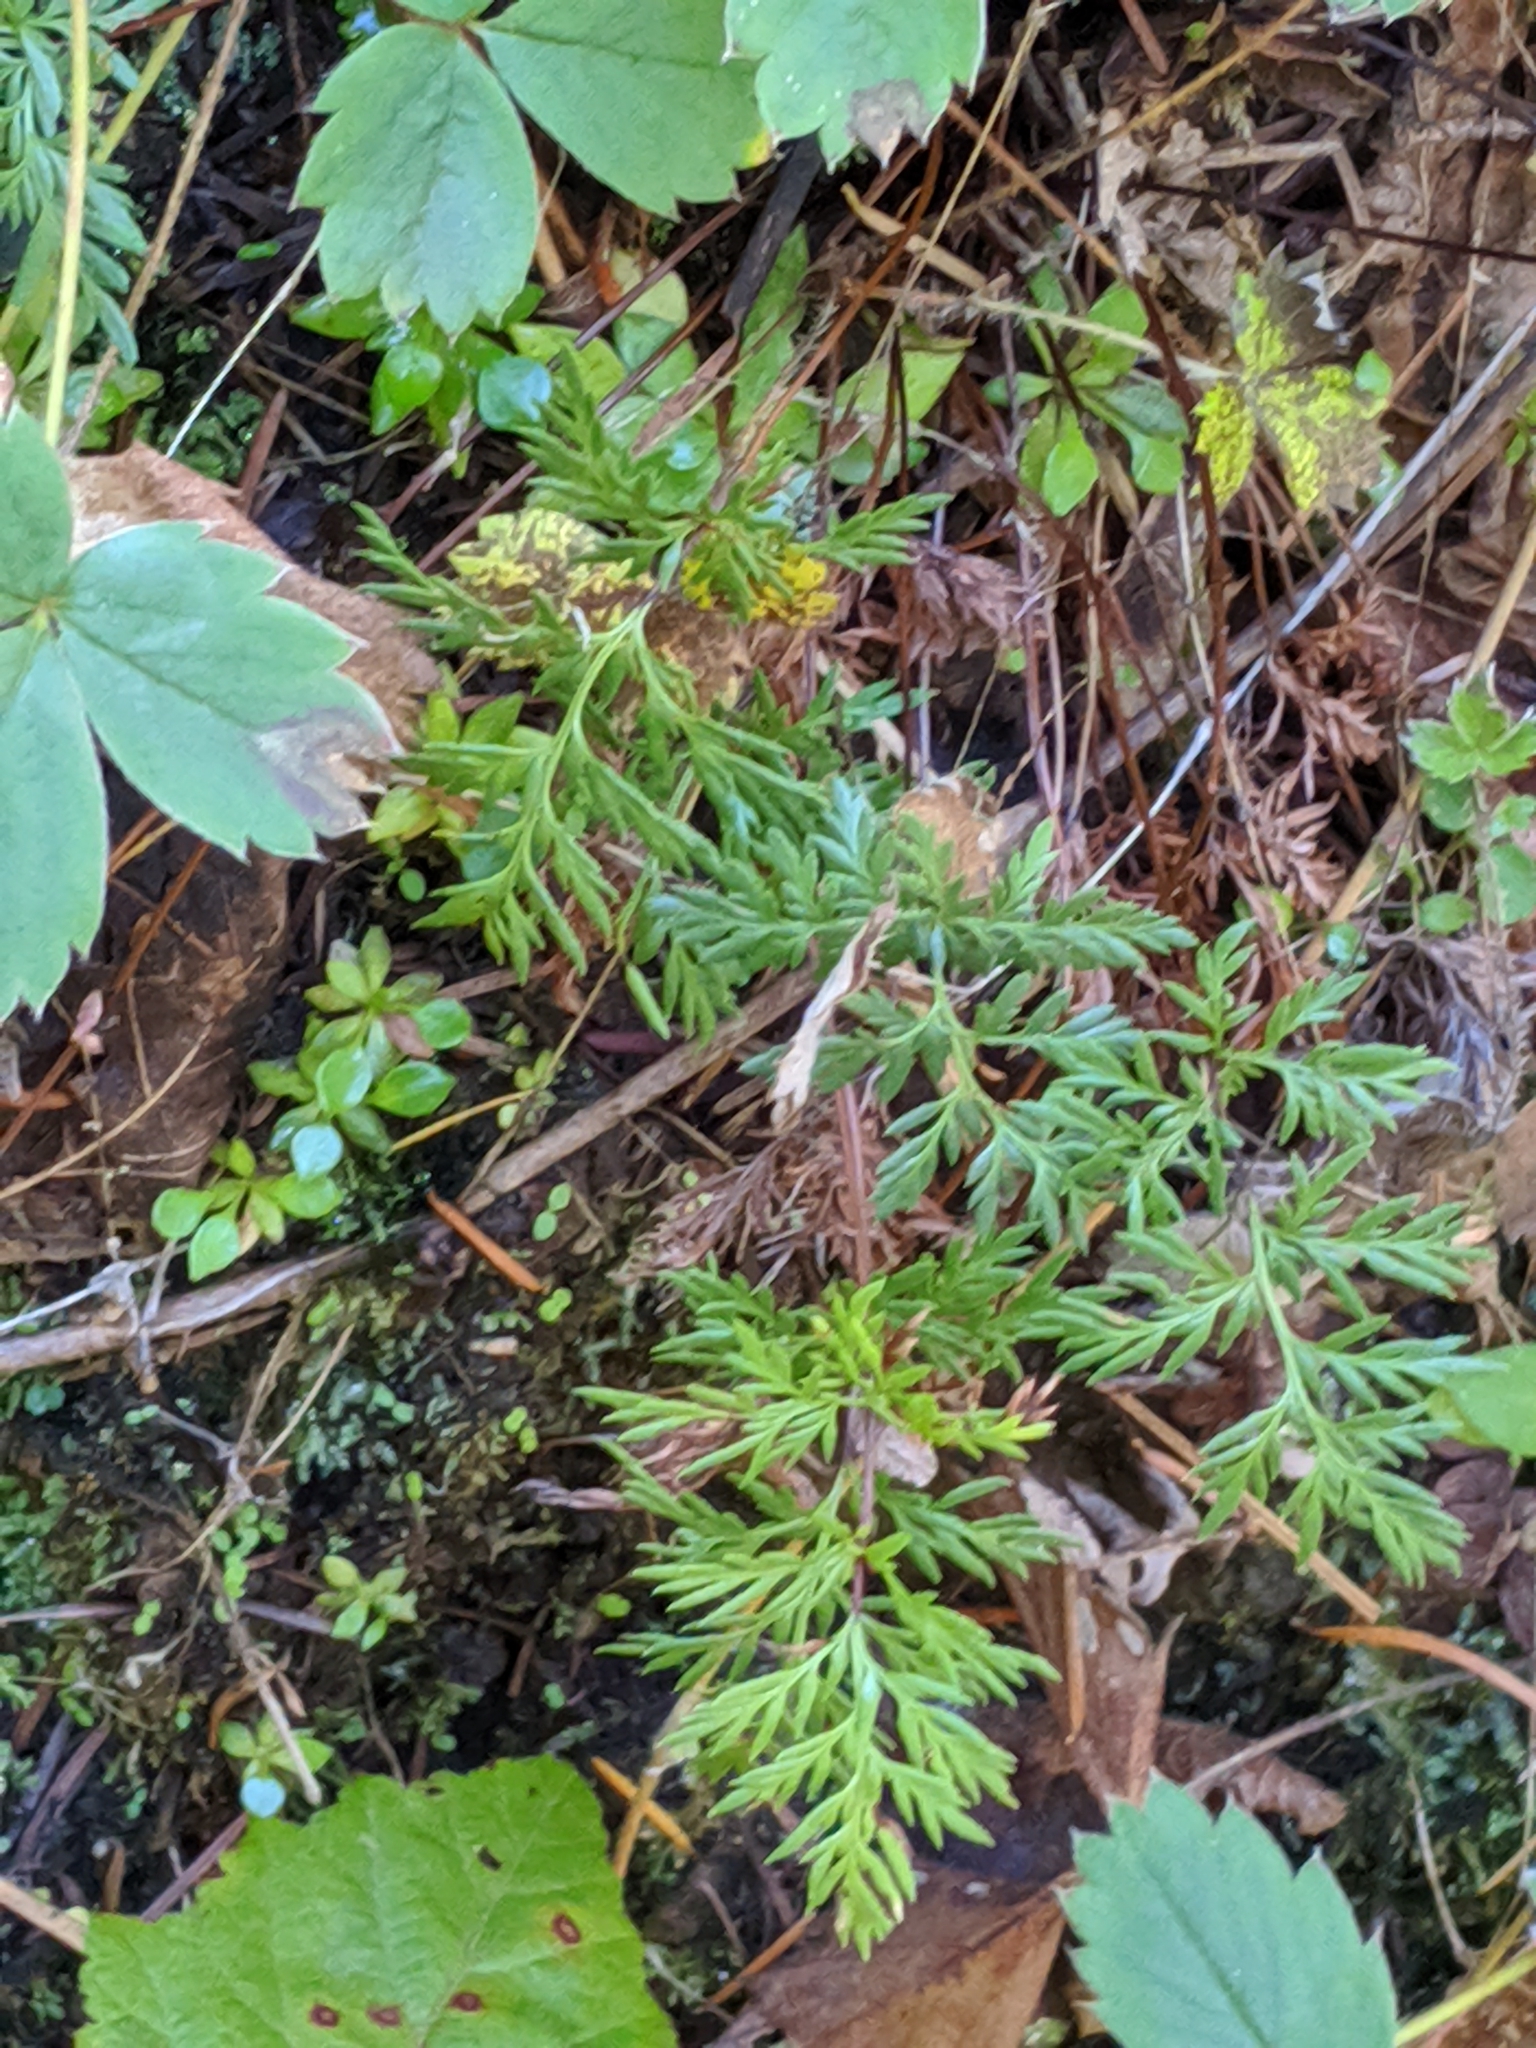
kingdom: Plantae
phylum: Tracheophyta
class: Polypodiopsida
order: Polypodiales
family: Pteridaceae
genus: Aspidotis
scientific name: Aspidotis densa
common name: Indian's dream
